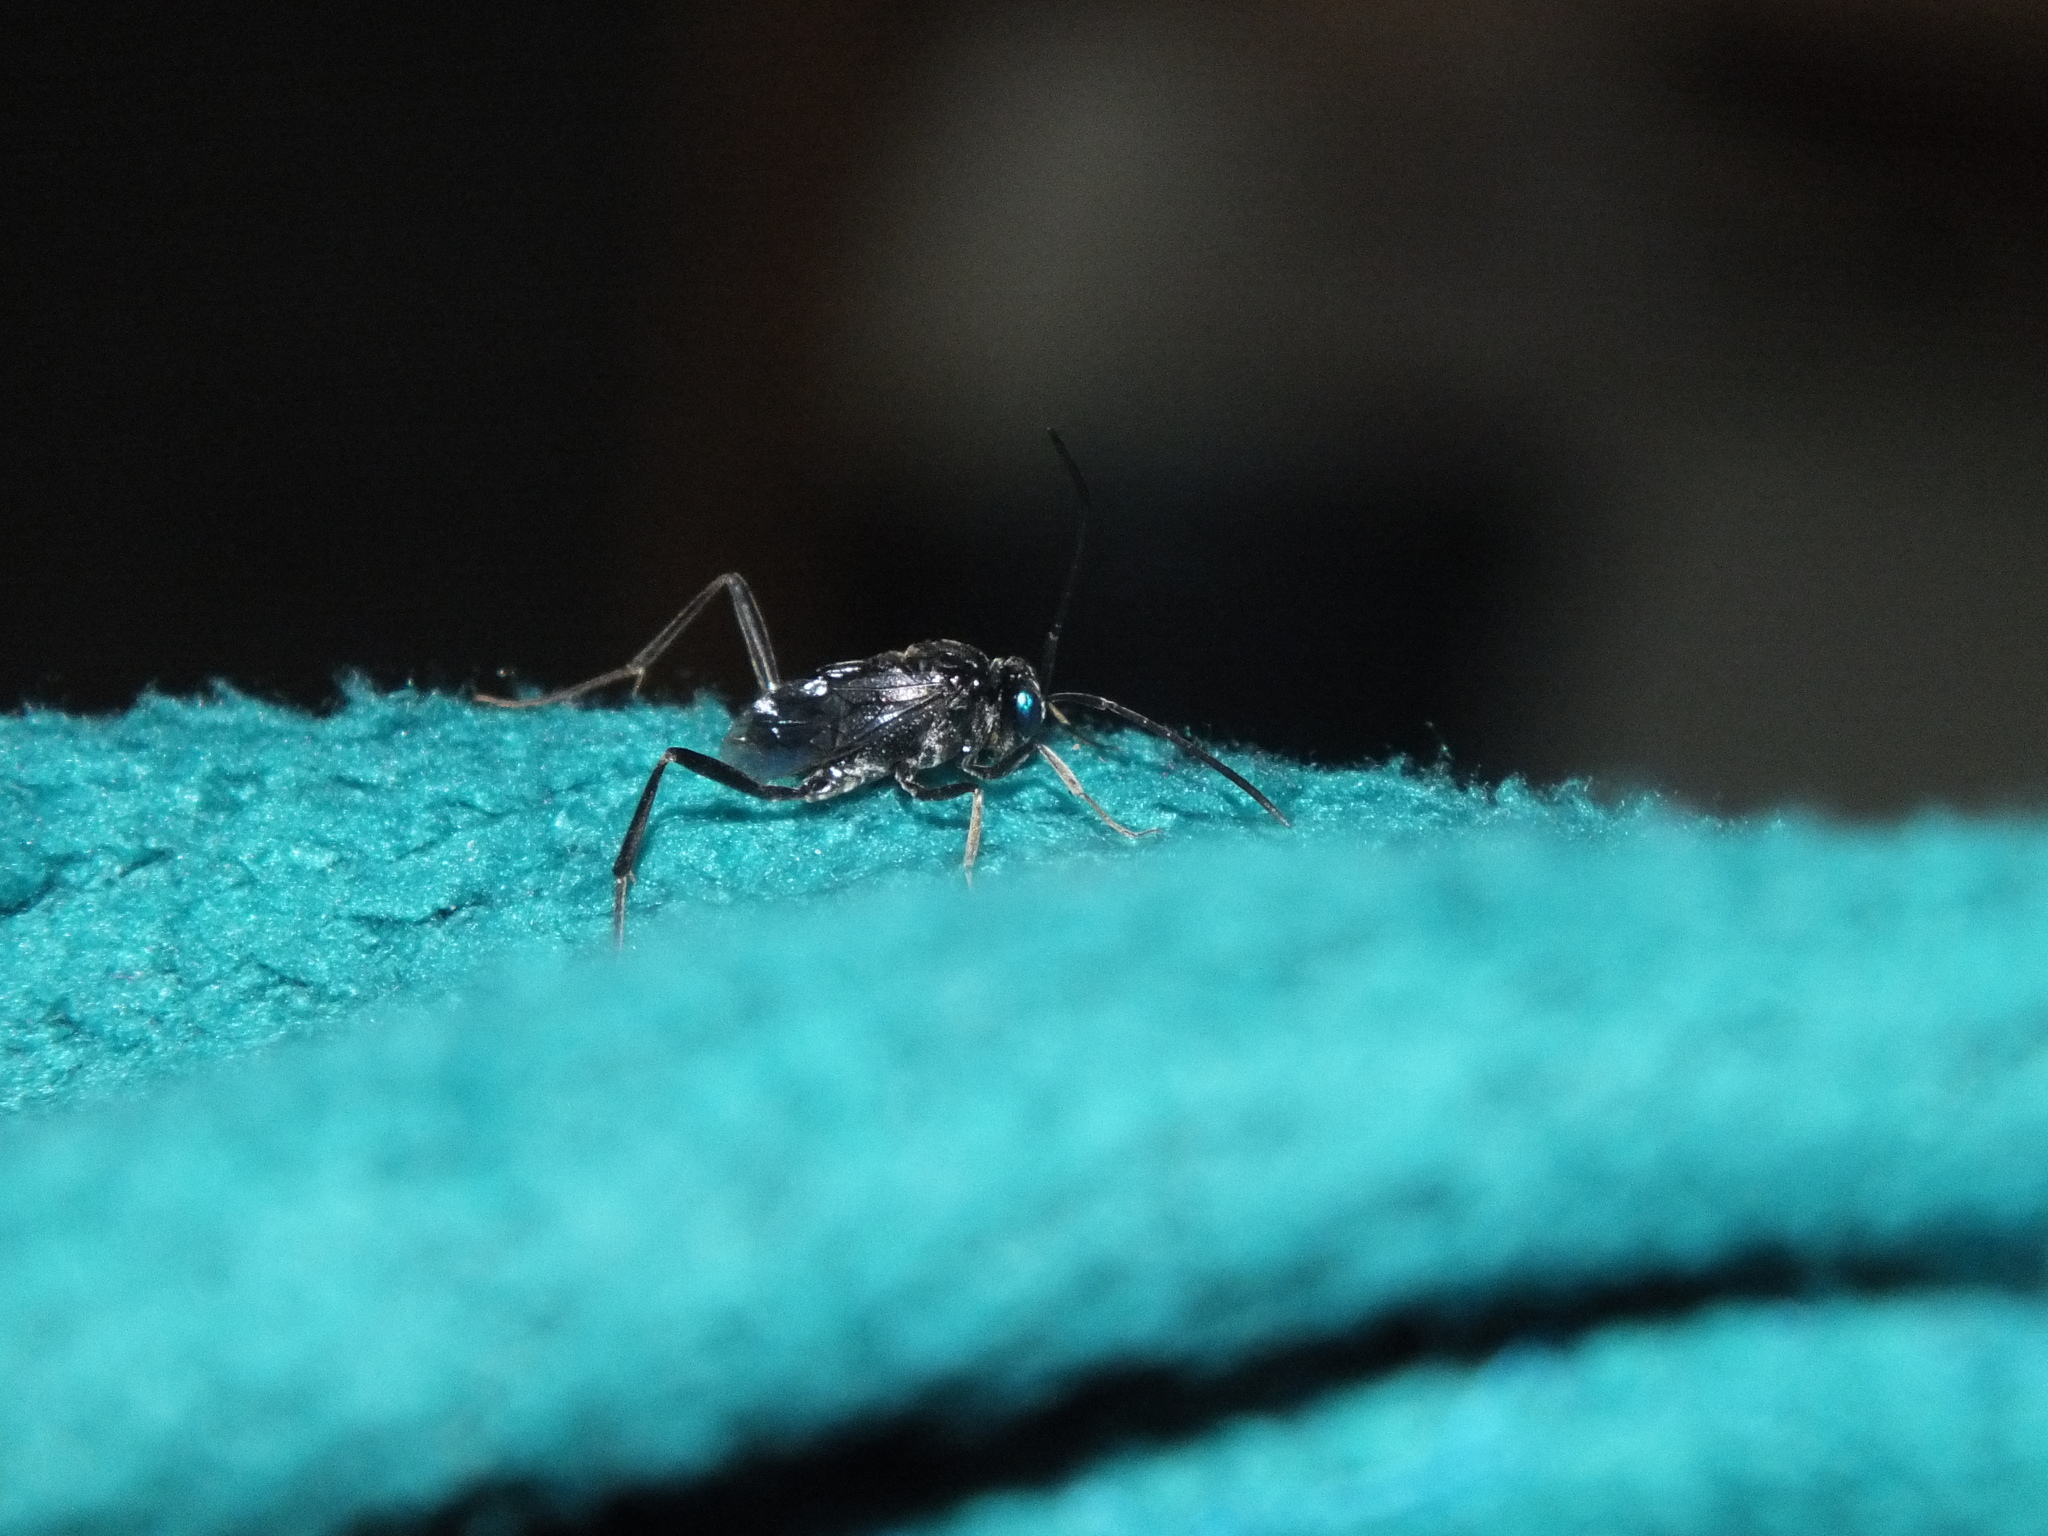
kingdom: Animalia
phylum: Arthropoda
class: Insecta
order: Hymenoptera
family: Evaniidae
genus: Evania
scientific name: Evania appendigaster
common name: Ensign wasp
